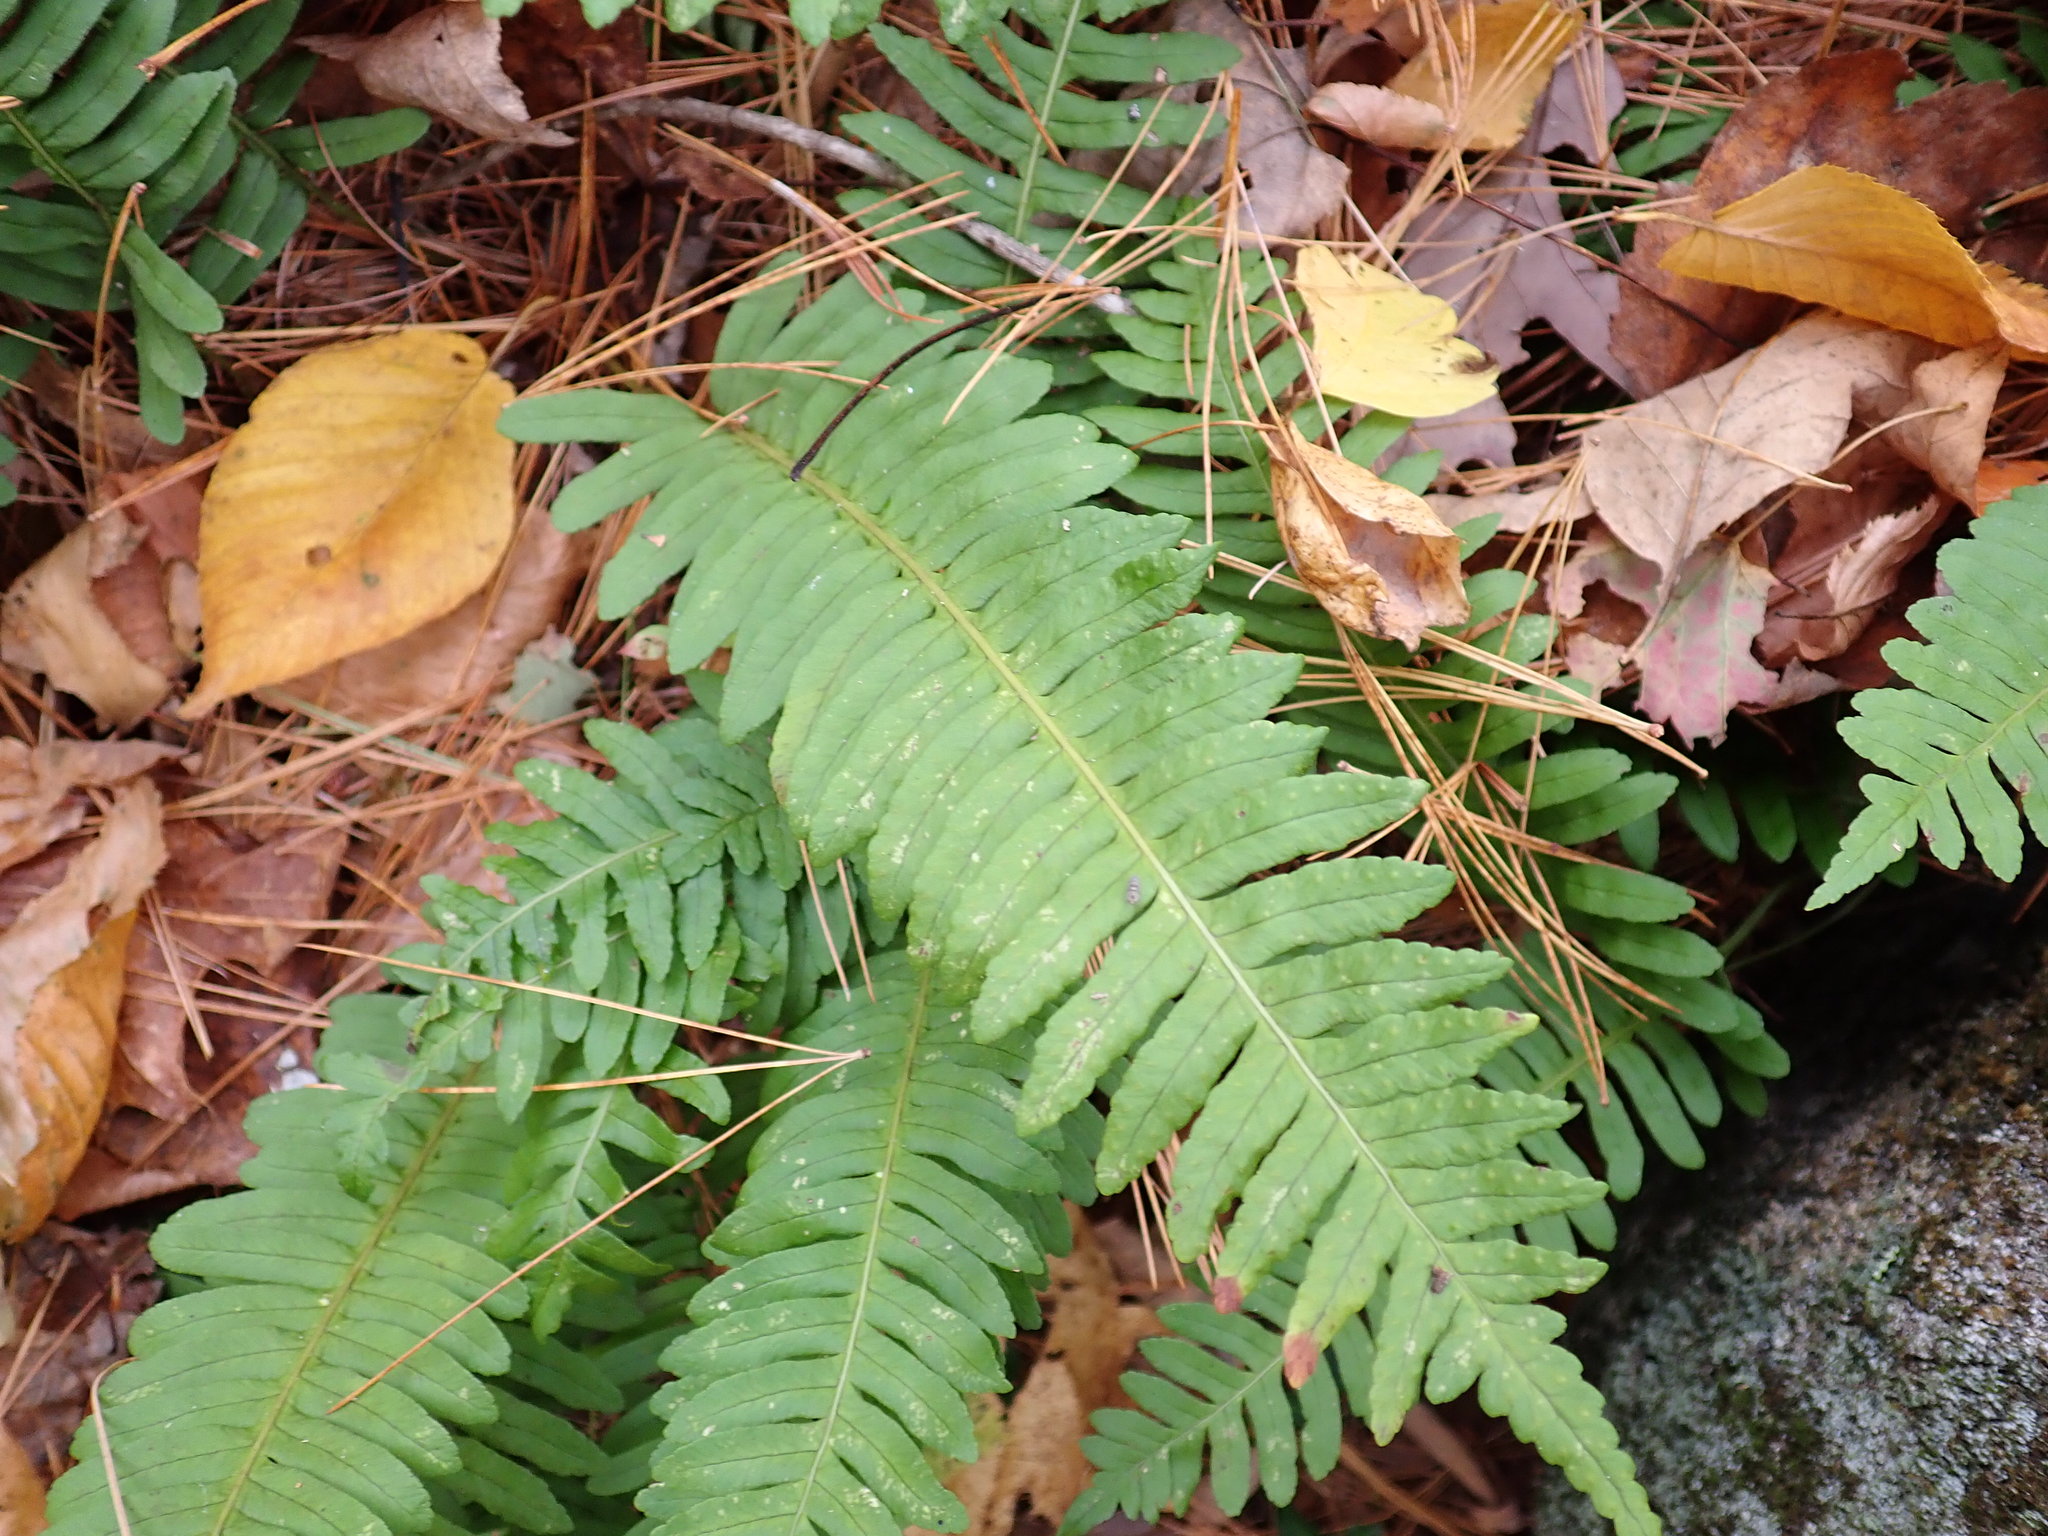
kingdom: Plantae
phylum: Tracheophyta
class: Polypodiopsida
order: Polypodiales
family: Polypodiaceae
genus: Polypodium
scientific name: Polypodium
